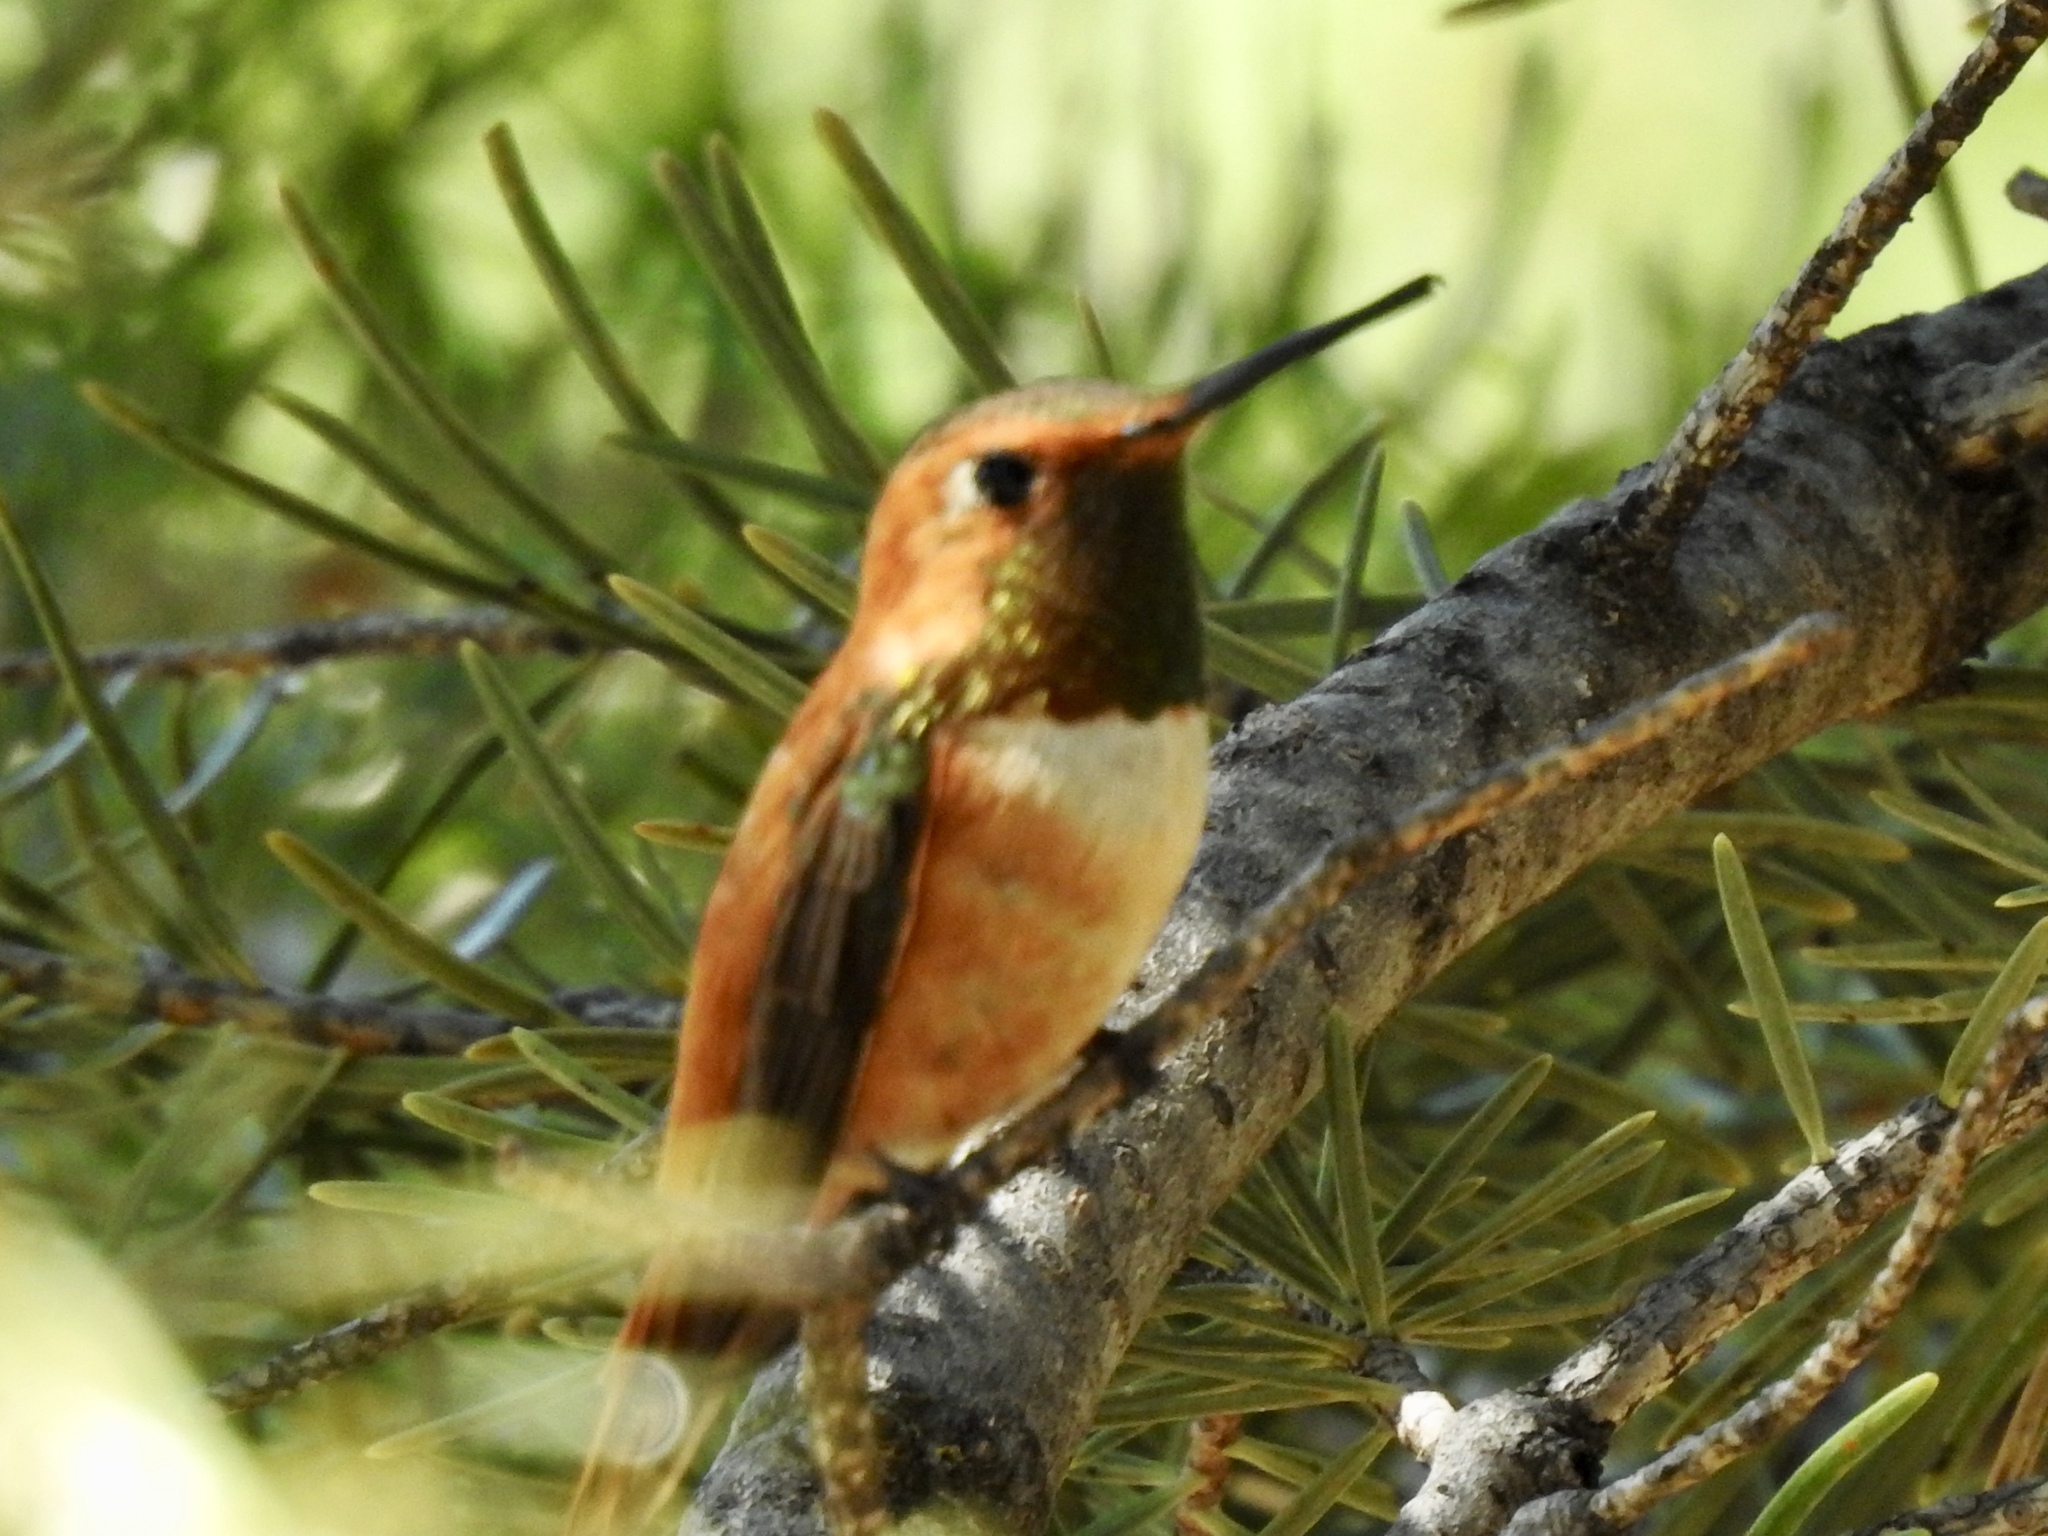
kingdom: Animalia
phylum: Chordata
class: Aves
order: Apodiformes
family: Trochilidae
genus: Selasphorus
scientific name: Selasphorus rufus
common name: Rufous hummingbird
